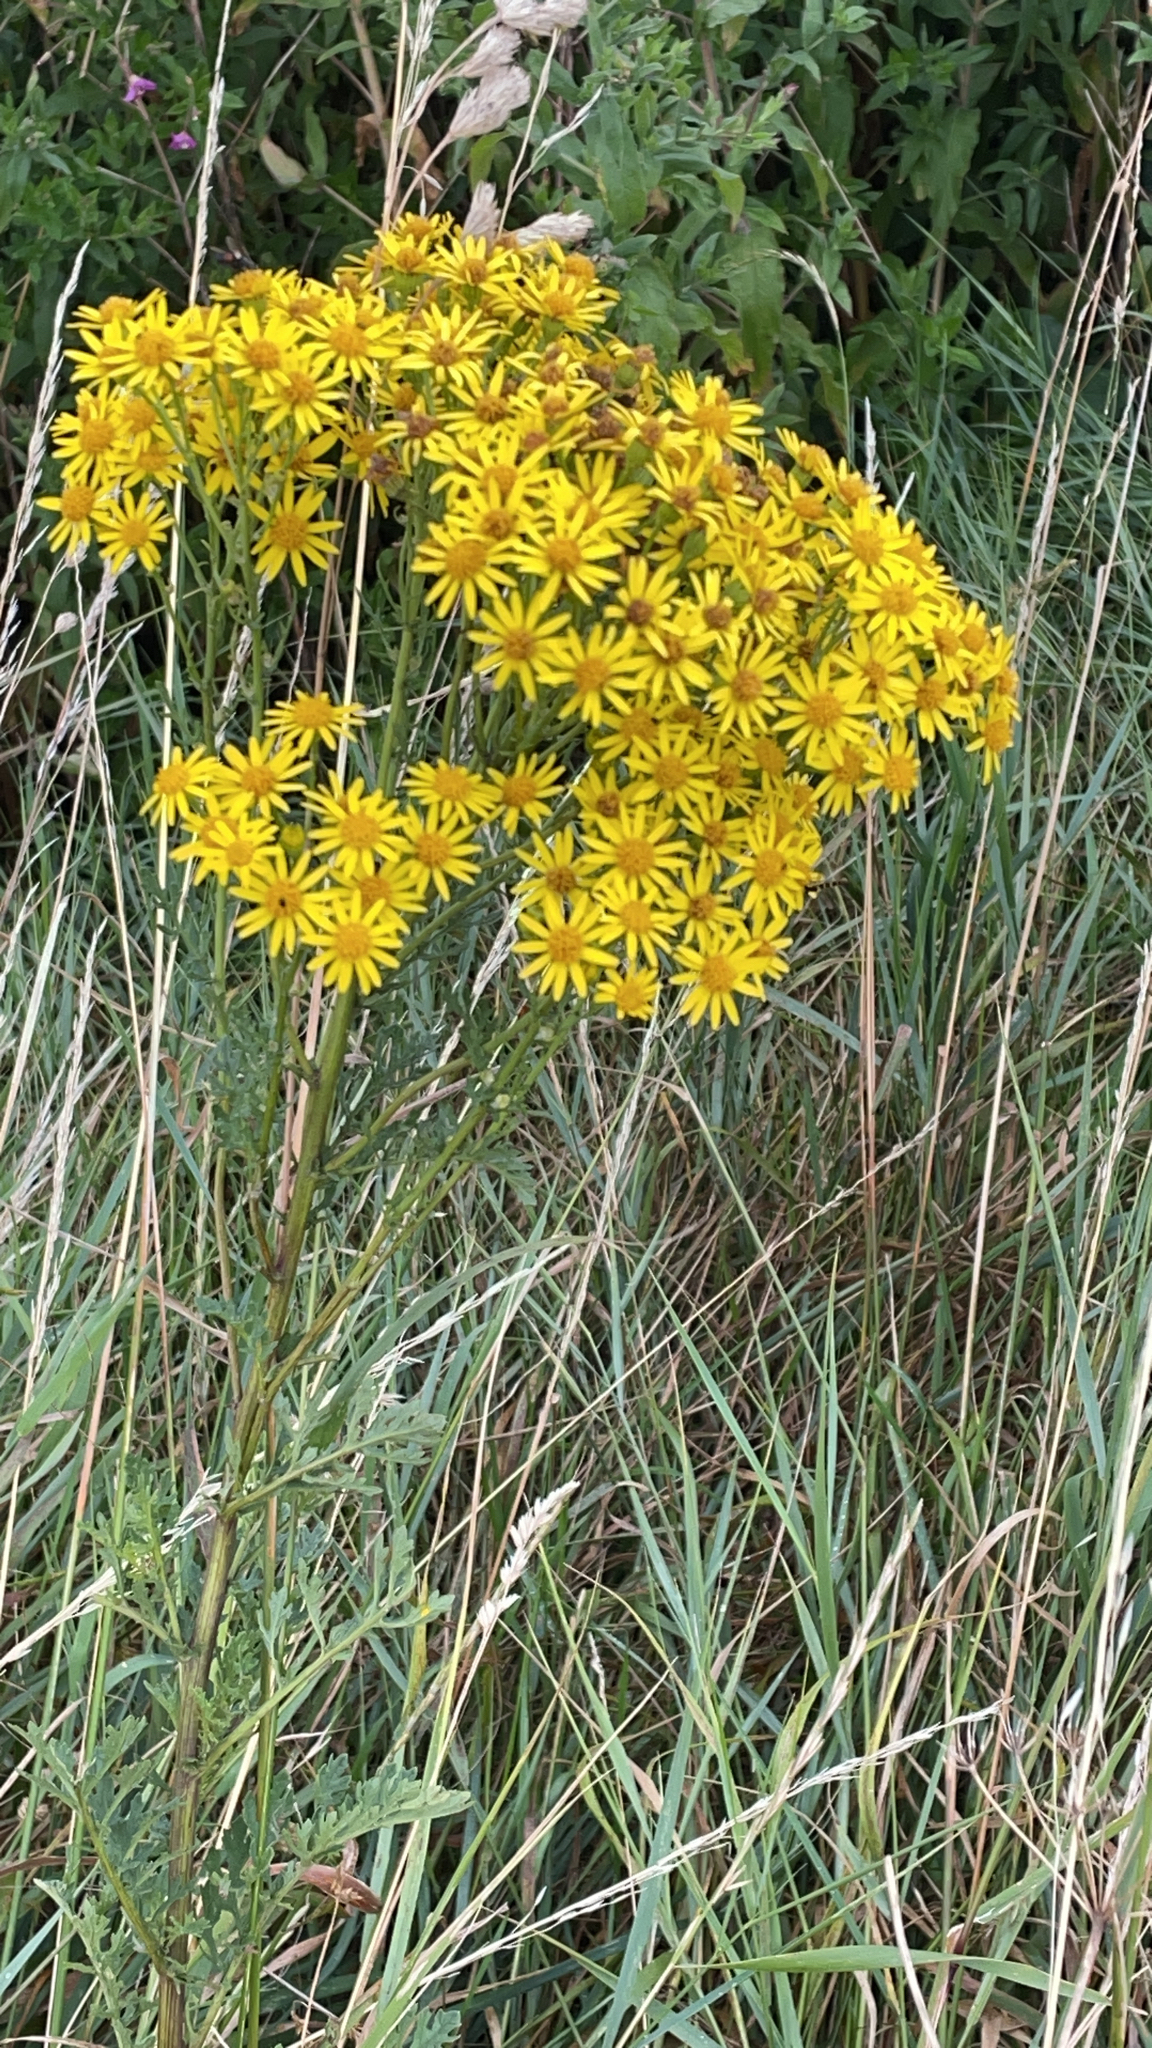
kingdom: Plantae
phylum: Tracheophyta
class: Magnoliopsida
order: Asterales
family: Asteraceae
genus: Jacobaea
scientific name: Jacobaea vulgaris
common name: Stinking willie
